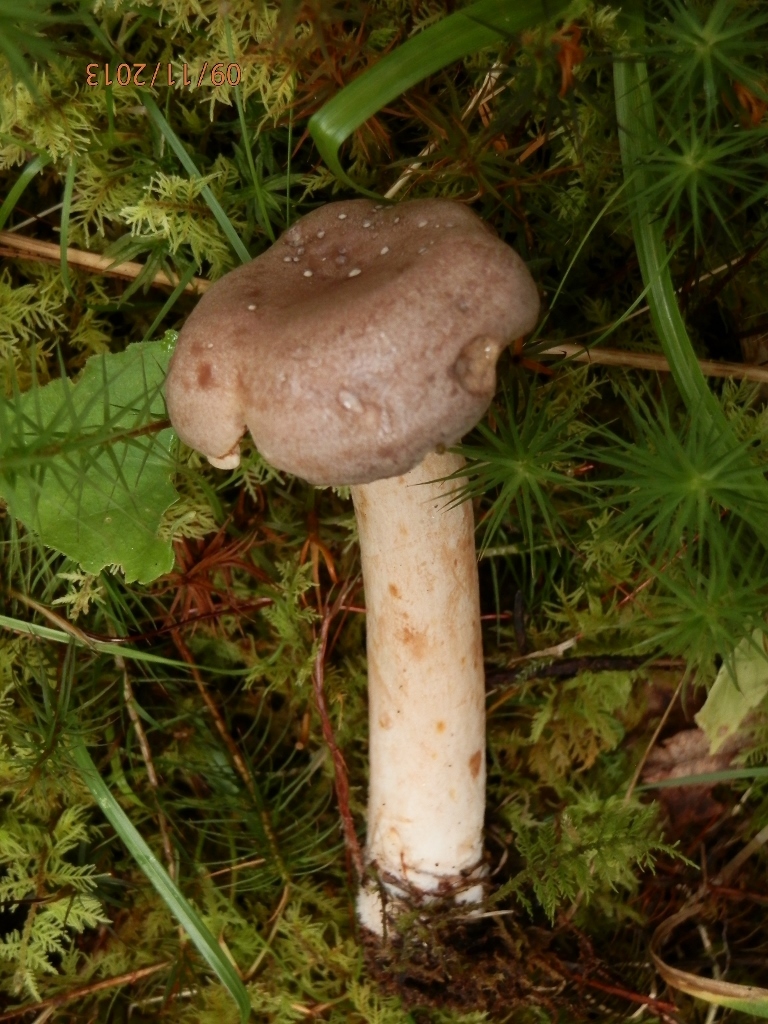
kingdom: Fungi
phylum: Basidiomycota
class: Agaricomycetes
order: Russulales
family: Russulaceae
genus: Lactarius
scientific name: Lactarius vietus
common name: Grey milk-cap
